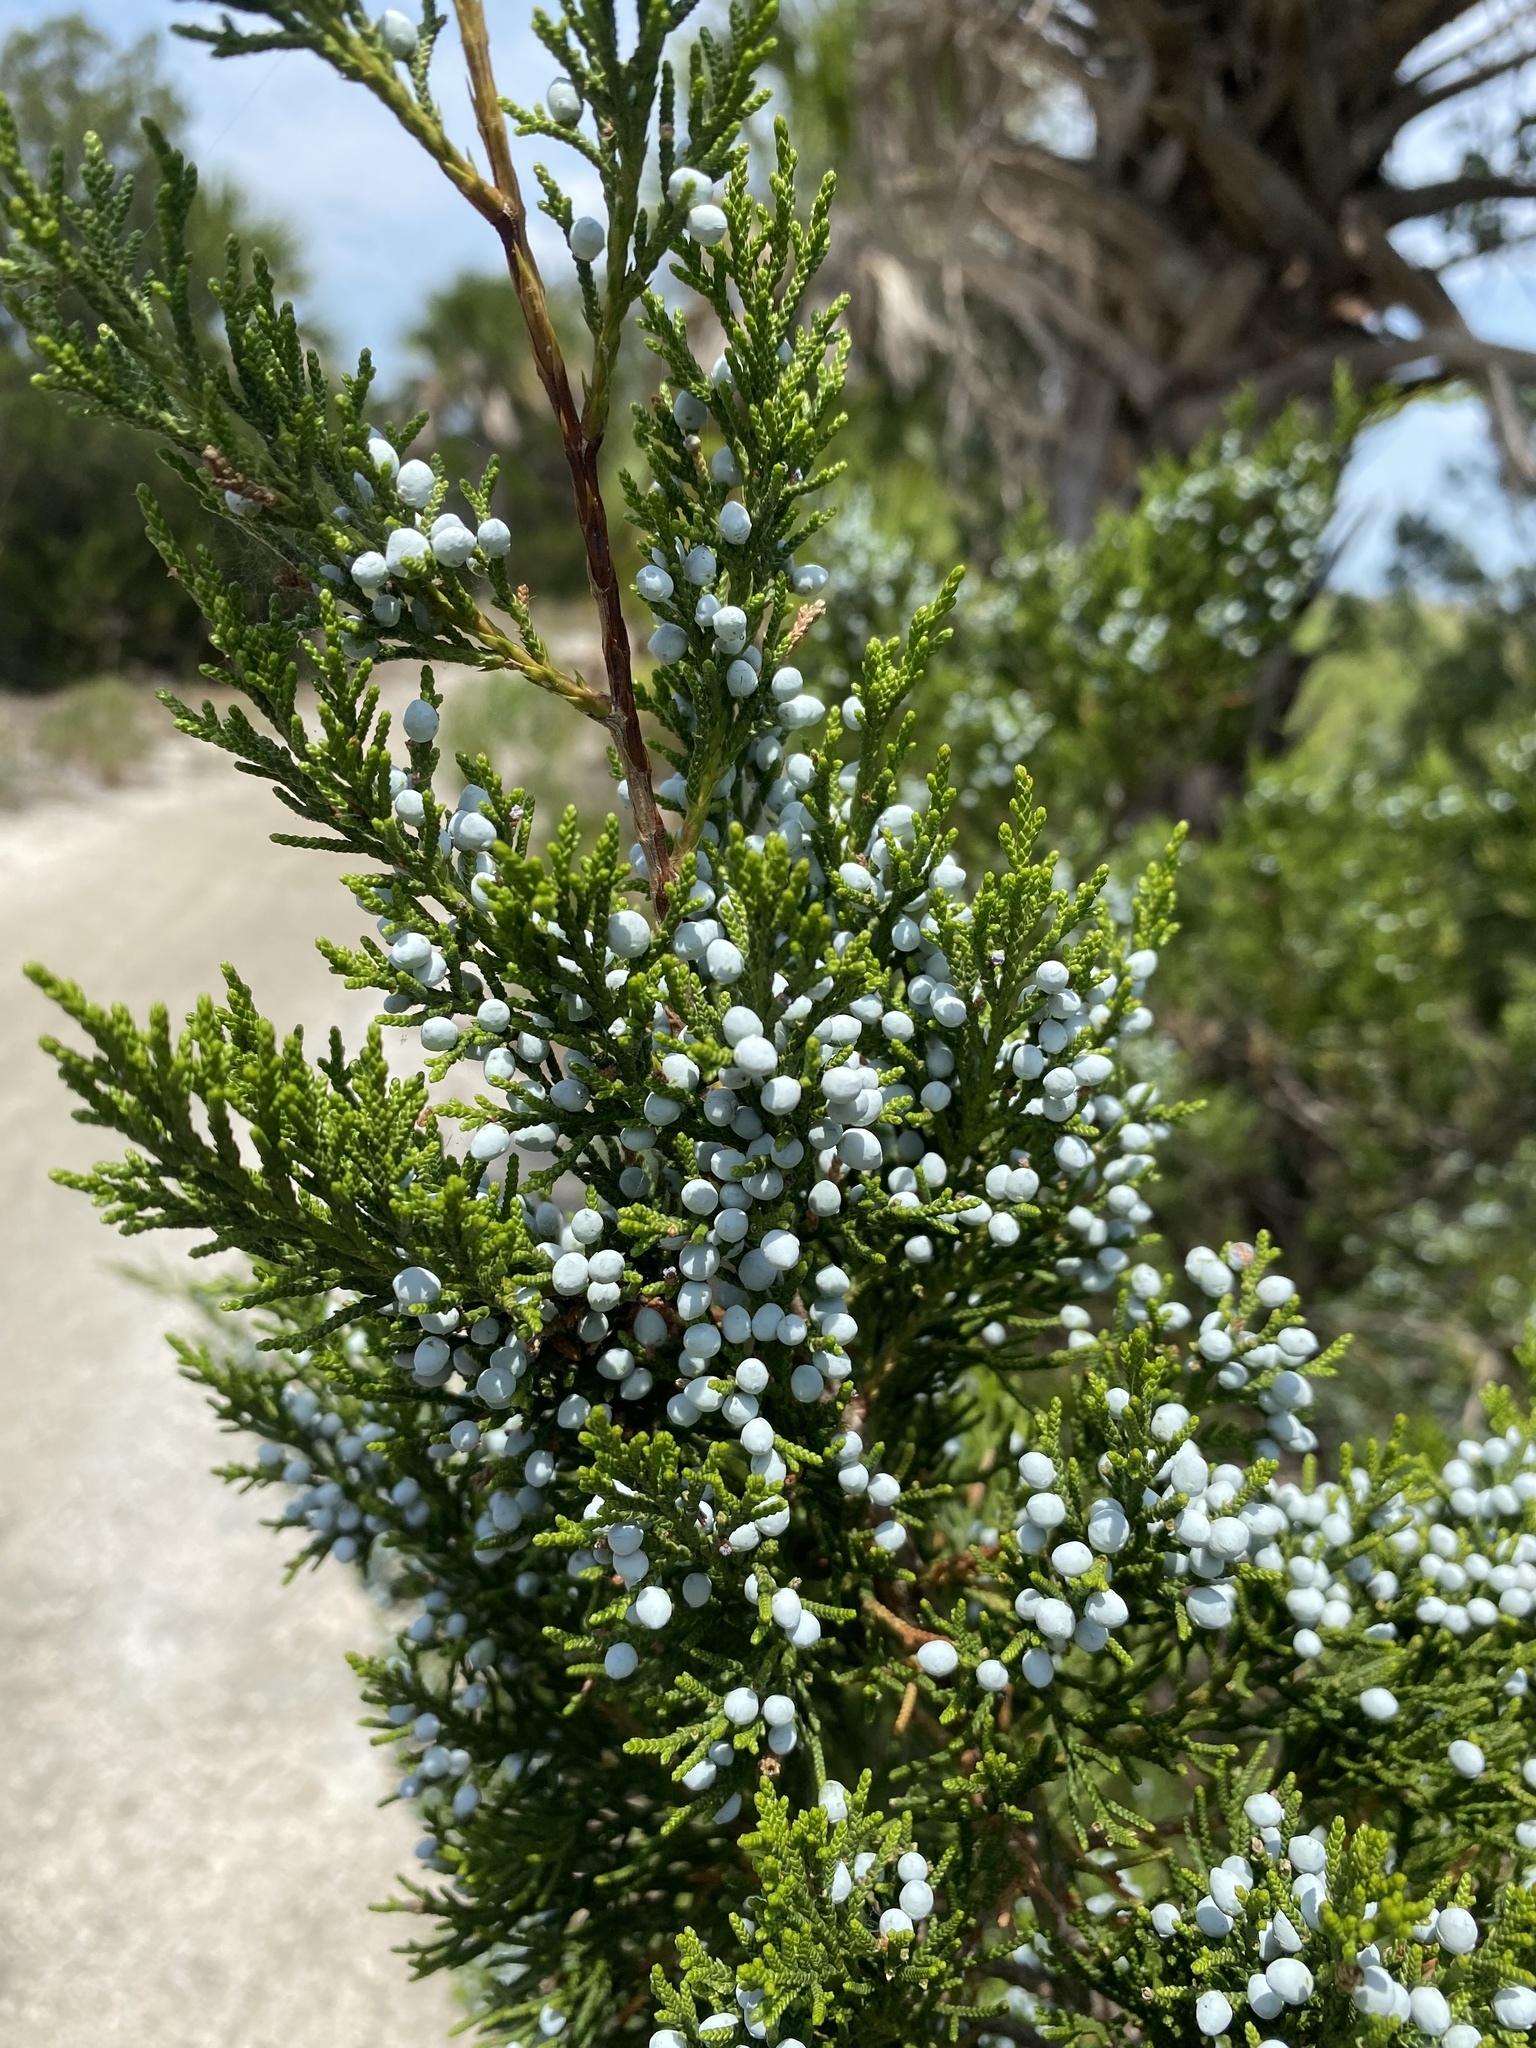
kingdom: Plantae
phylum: Tracheophyta
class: Pinopsida
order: Pinales
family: Cupressaceae
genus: Juniperus
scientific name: Juniperus virginiana
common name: Red juniper
